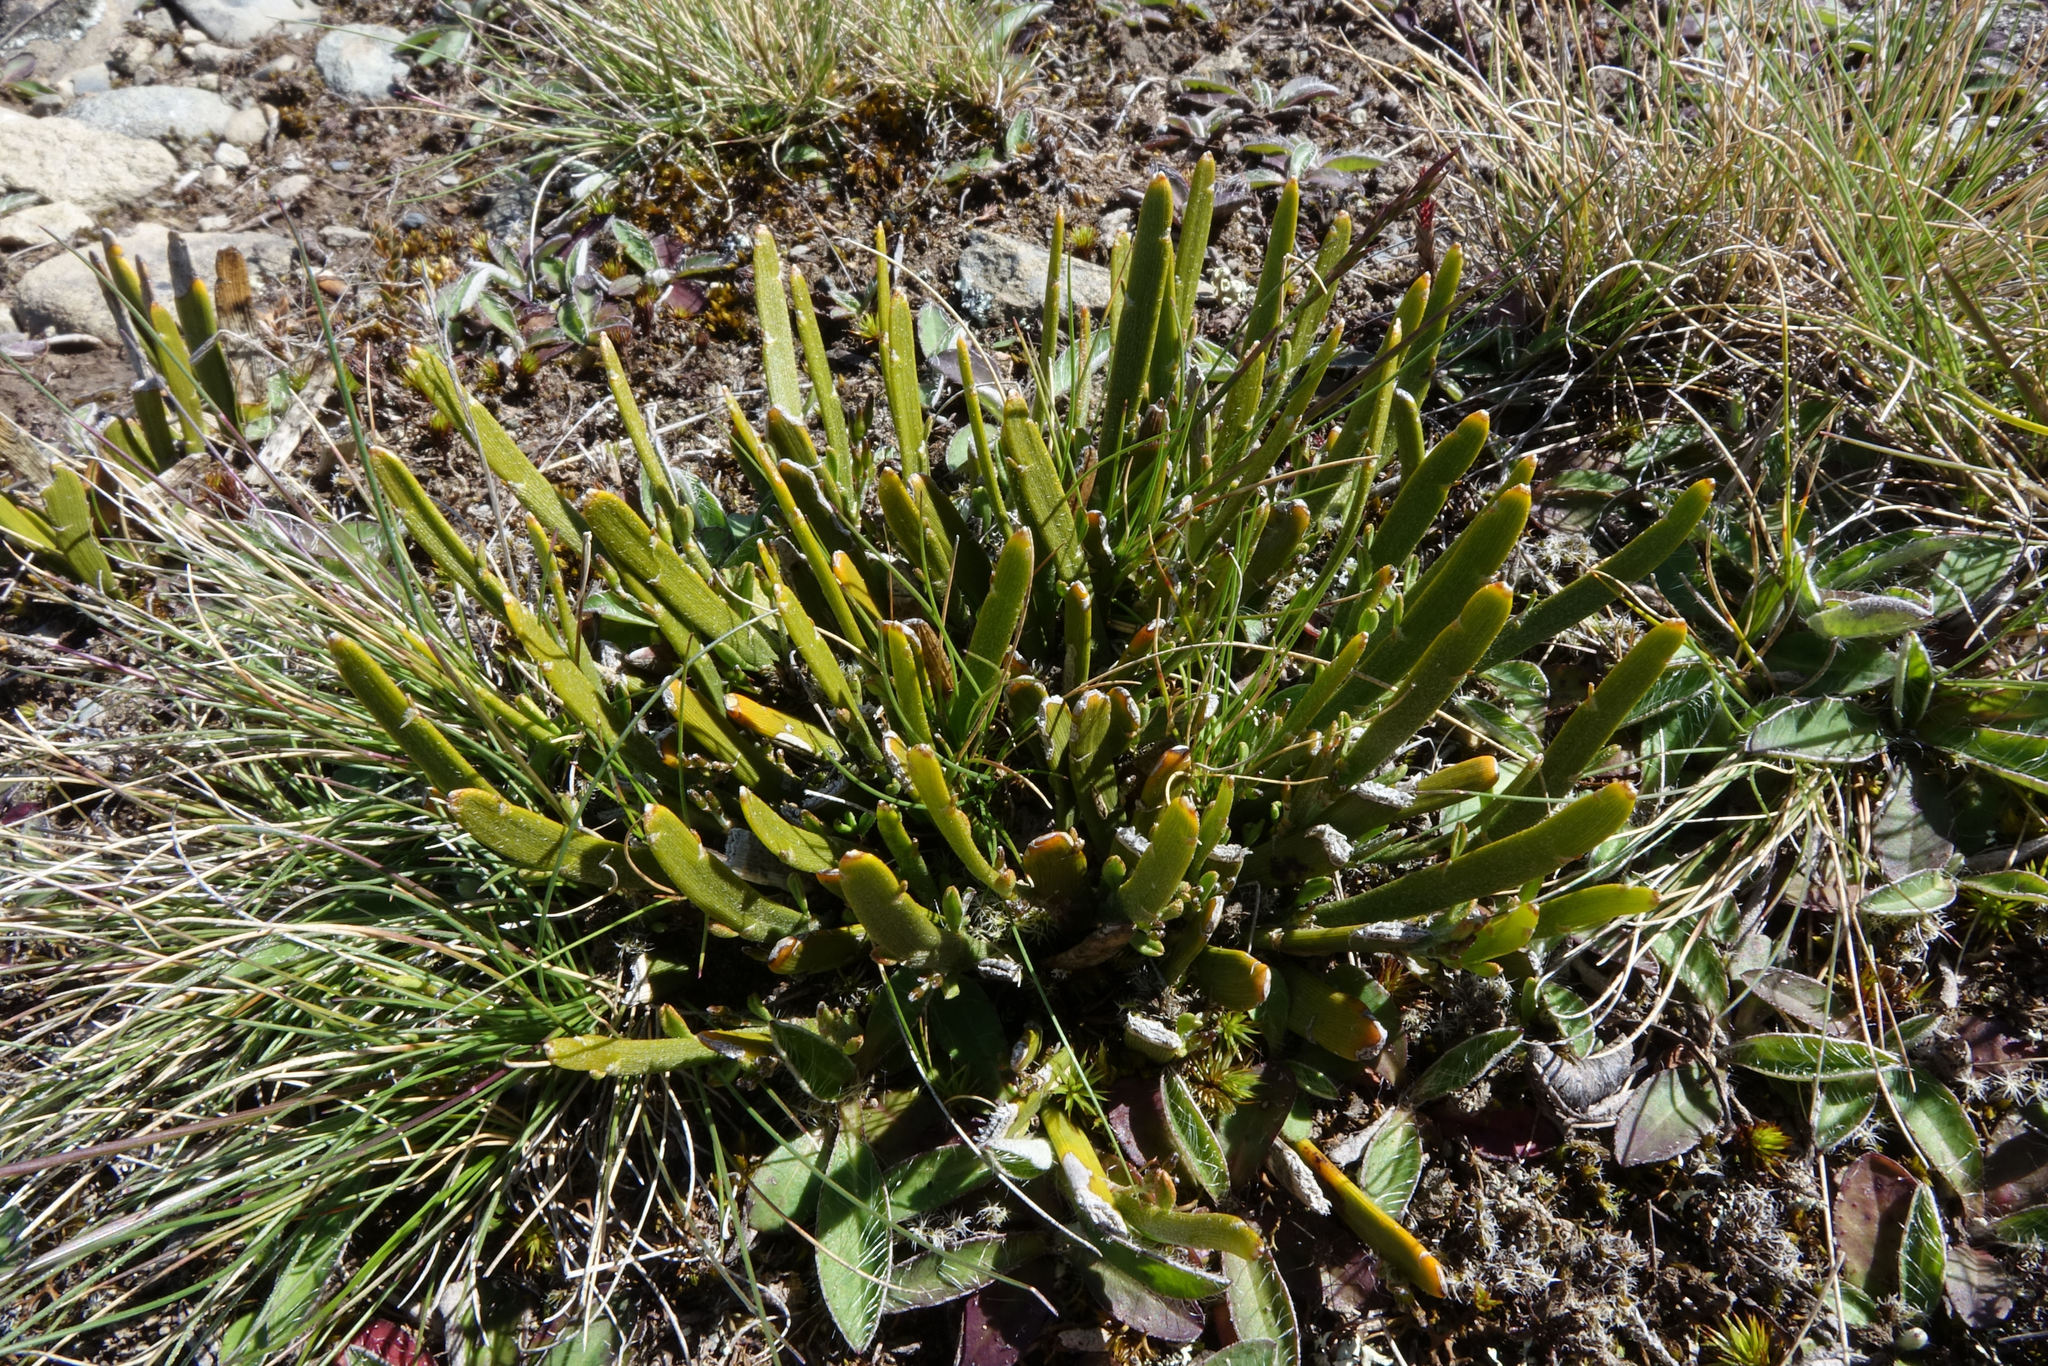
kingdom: Plantae
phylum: Tracheophyta
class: Magnoliopsida
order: Fabales
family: Fabaceae
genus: Carmichaelia
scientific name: Carmichaelia vexillata
